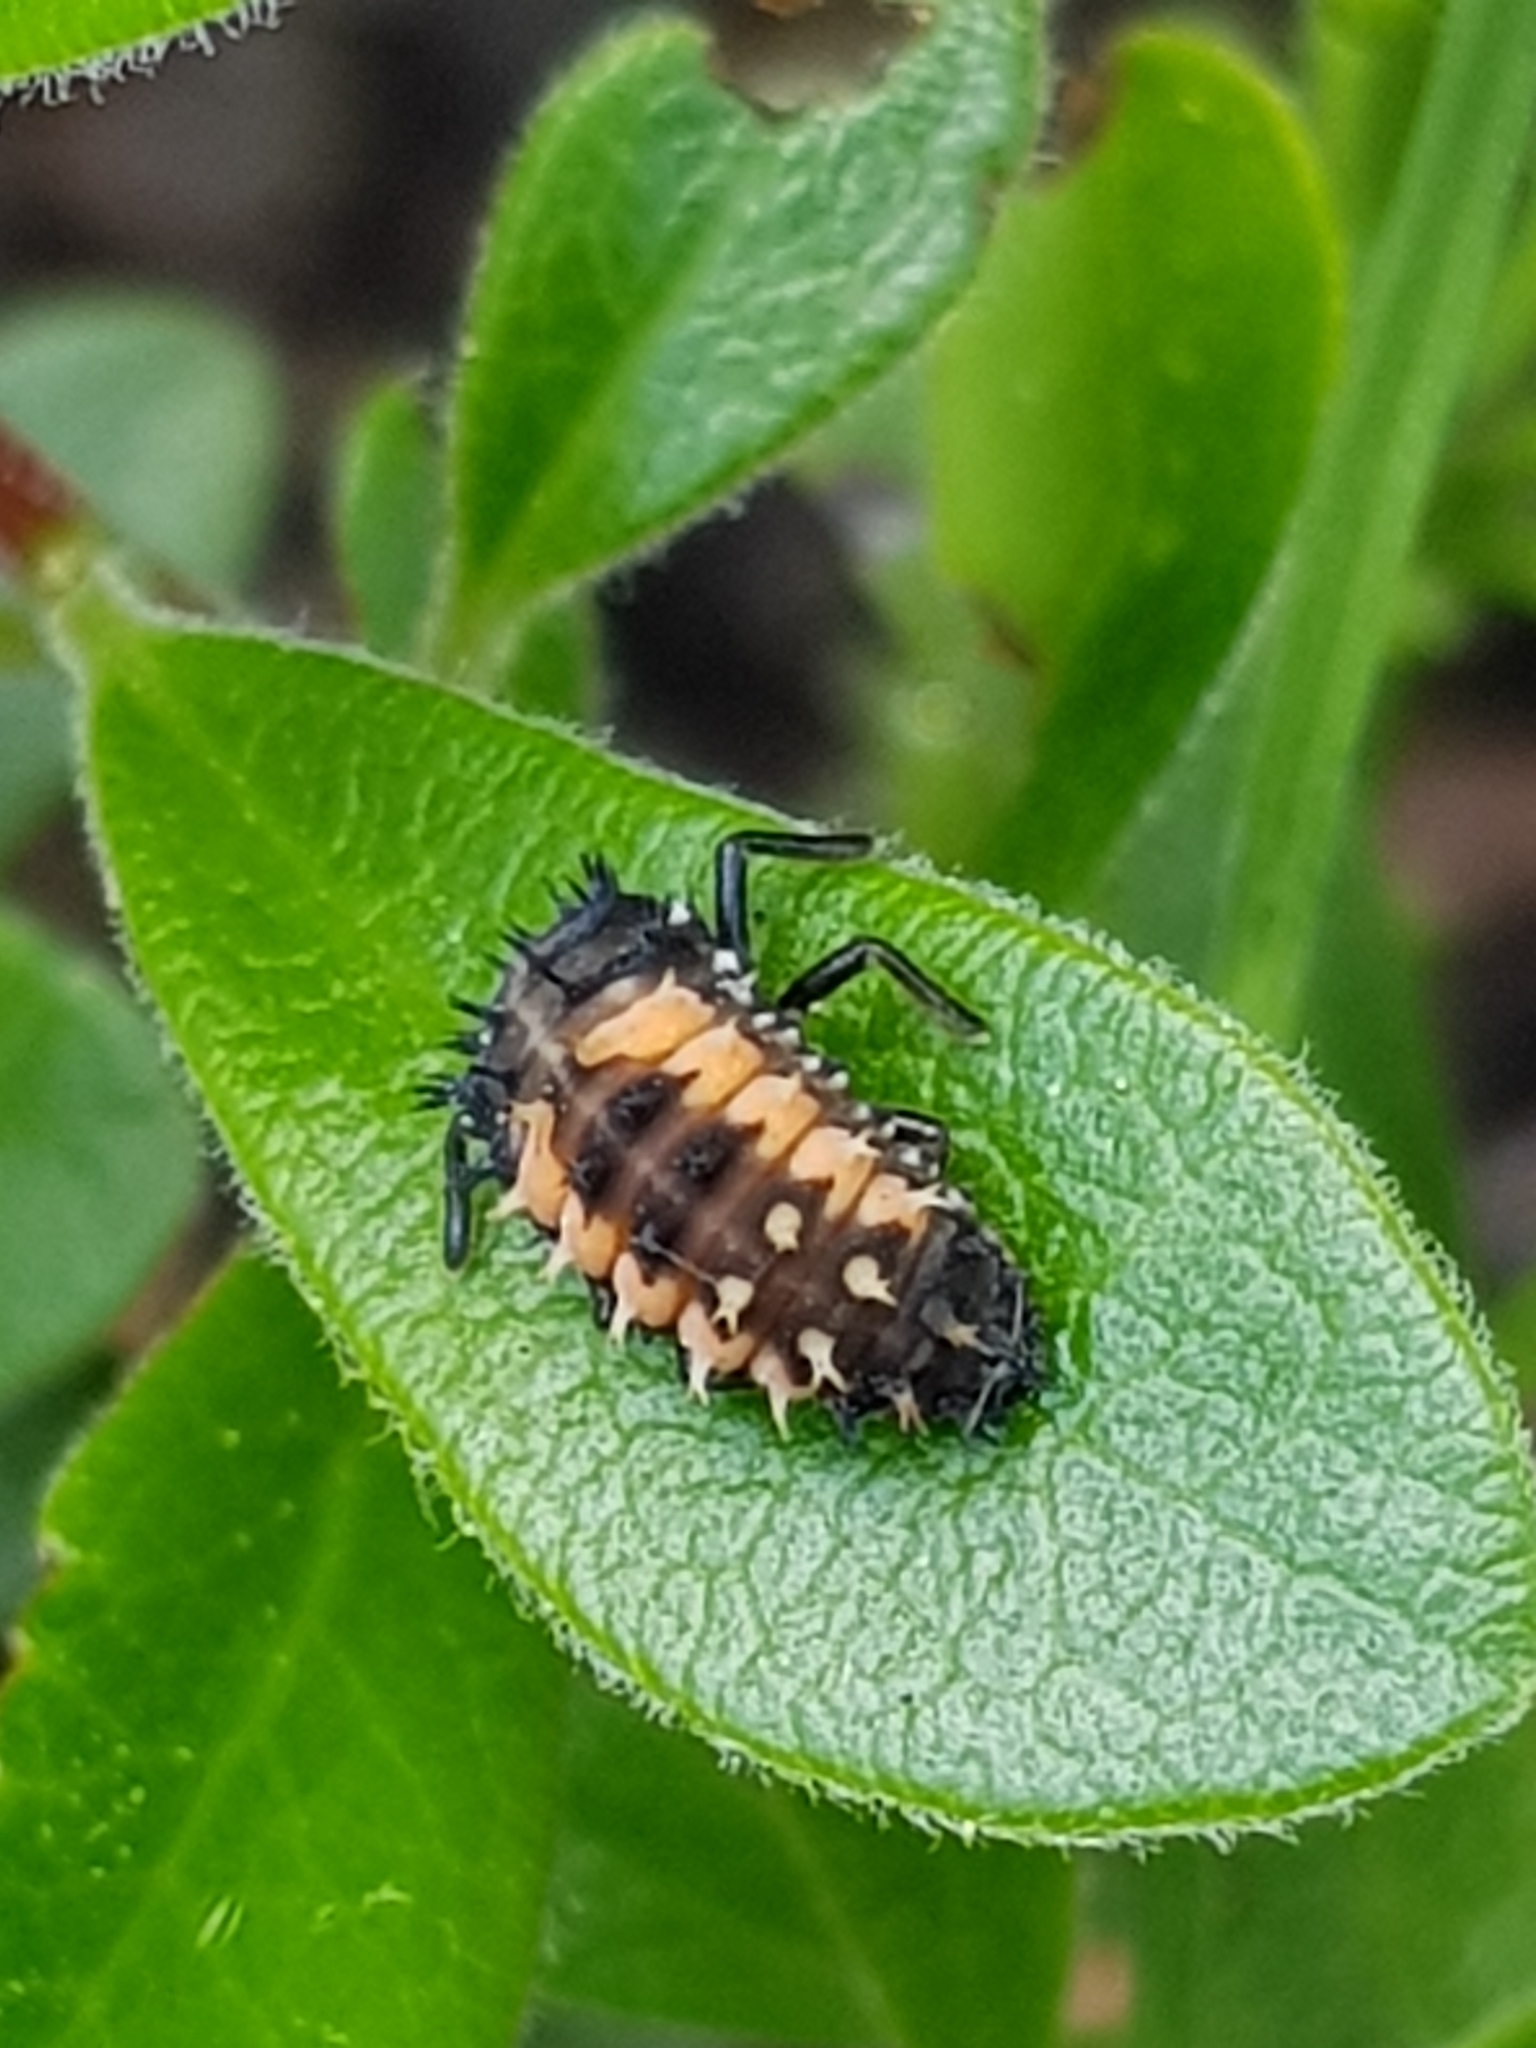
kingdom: Animalia
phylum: Arthropoda
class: Insecta
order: Coleoptera
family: Coccinellidae
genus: Harmonia
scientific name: Harmonia axyridis
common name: Harlequin ladybird
